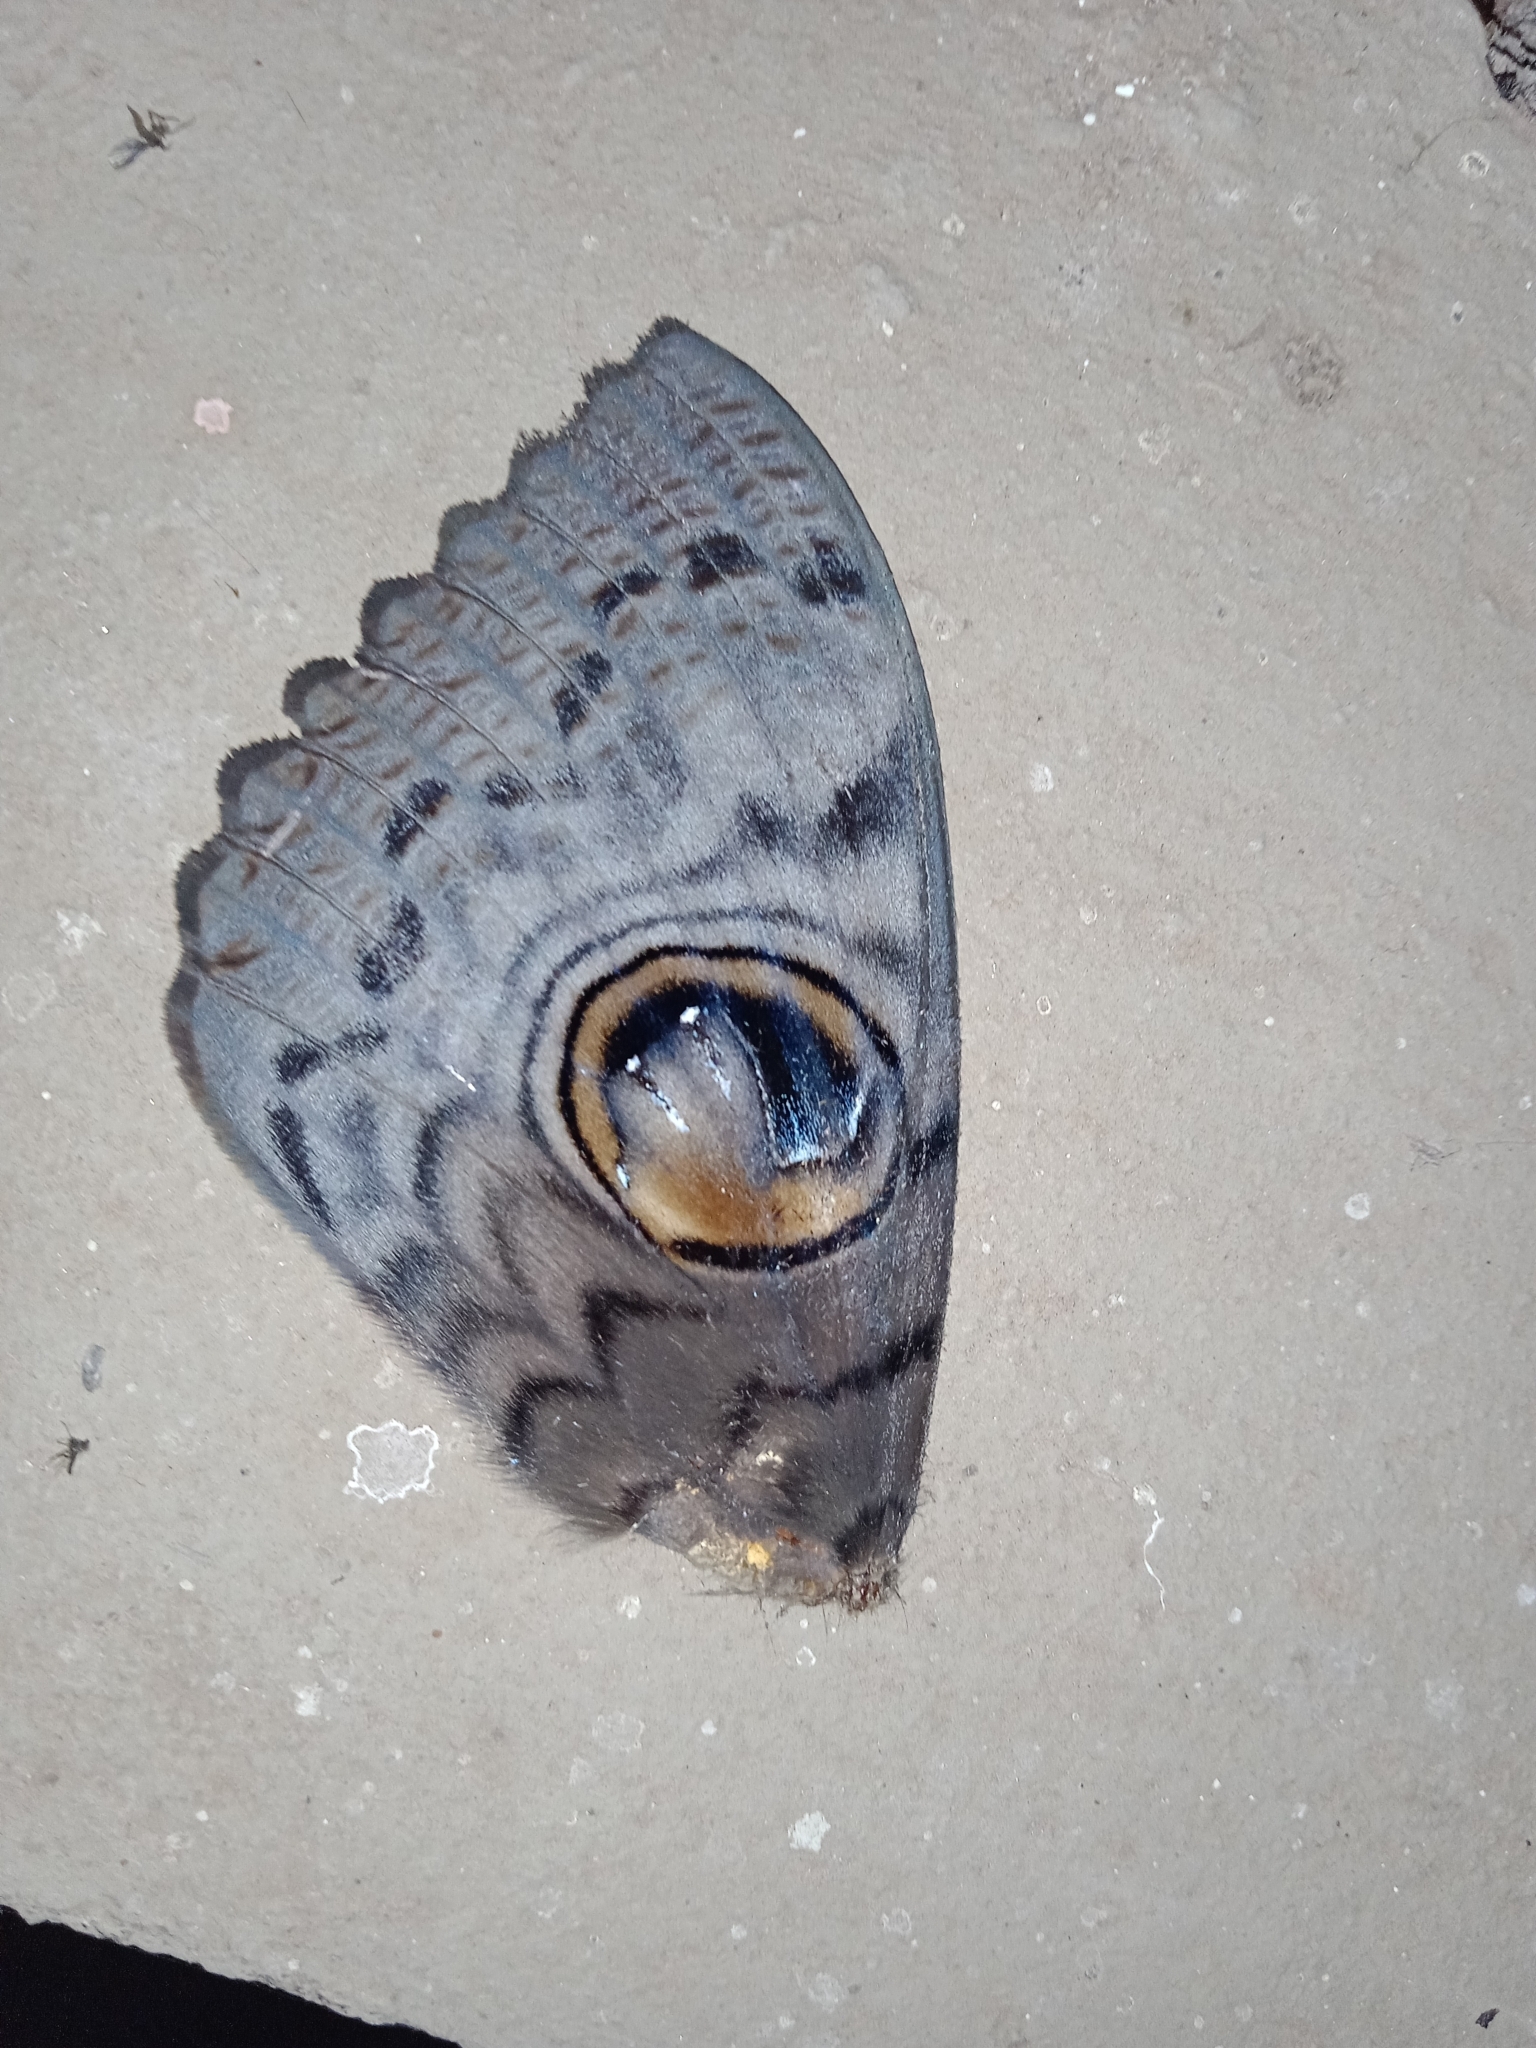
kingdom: Animalia
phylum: Arthropoda
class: Insecta
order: Lepidoptera
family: Erebidae
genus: Erebus
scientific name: Erebus macrops
